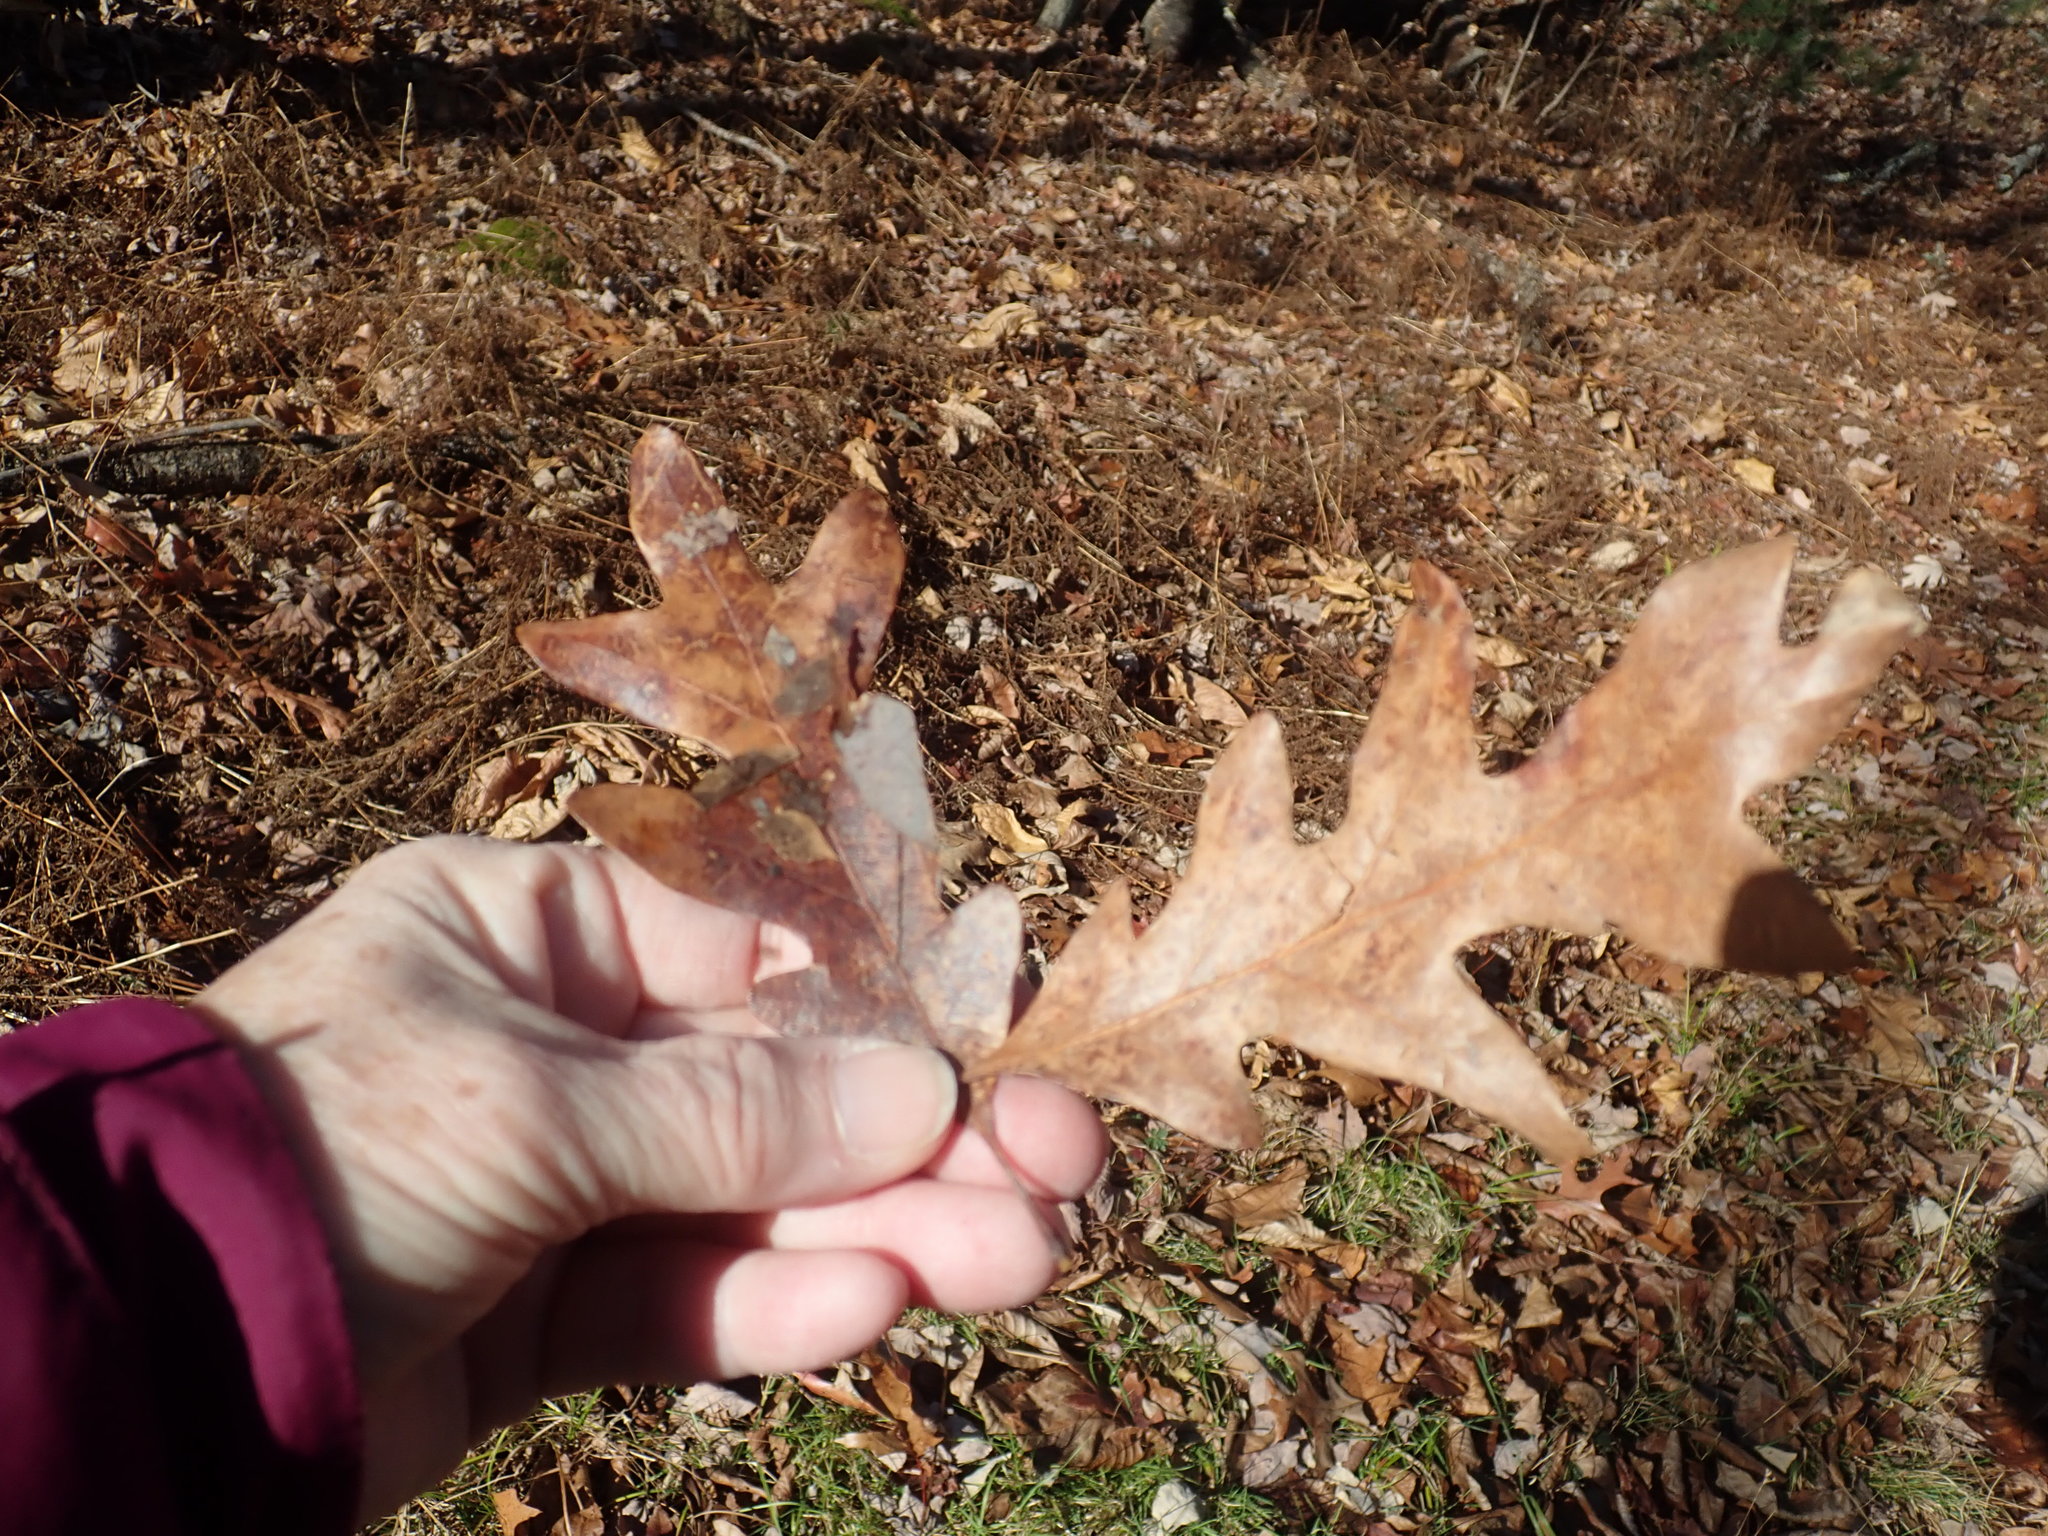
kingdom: Plantae
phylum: Tracheophyta
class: Magnoliopsida
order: Fagales
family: Fagaceae
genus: Quercus
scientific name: Quercus alba
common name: White oak
